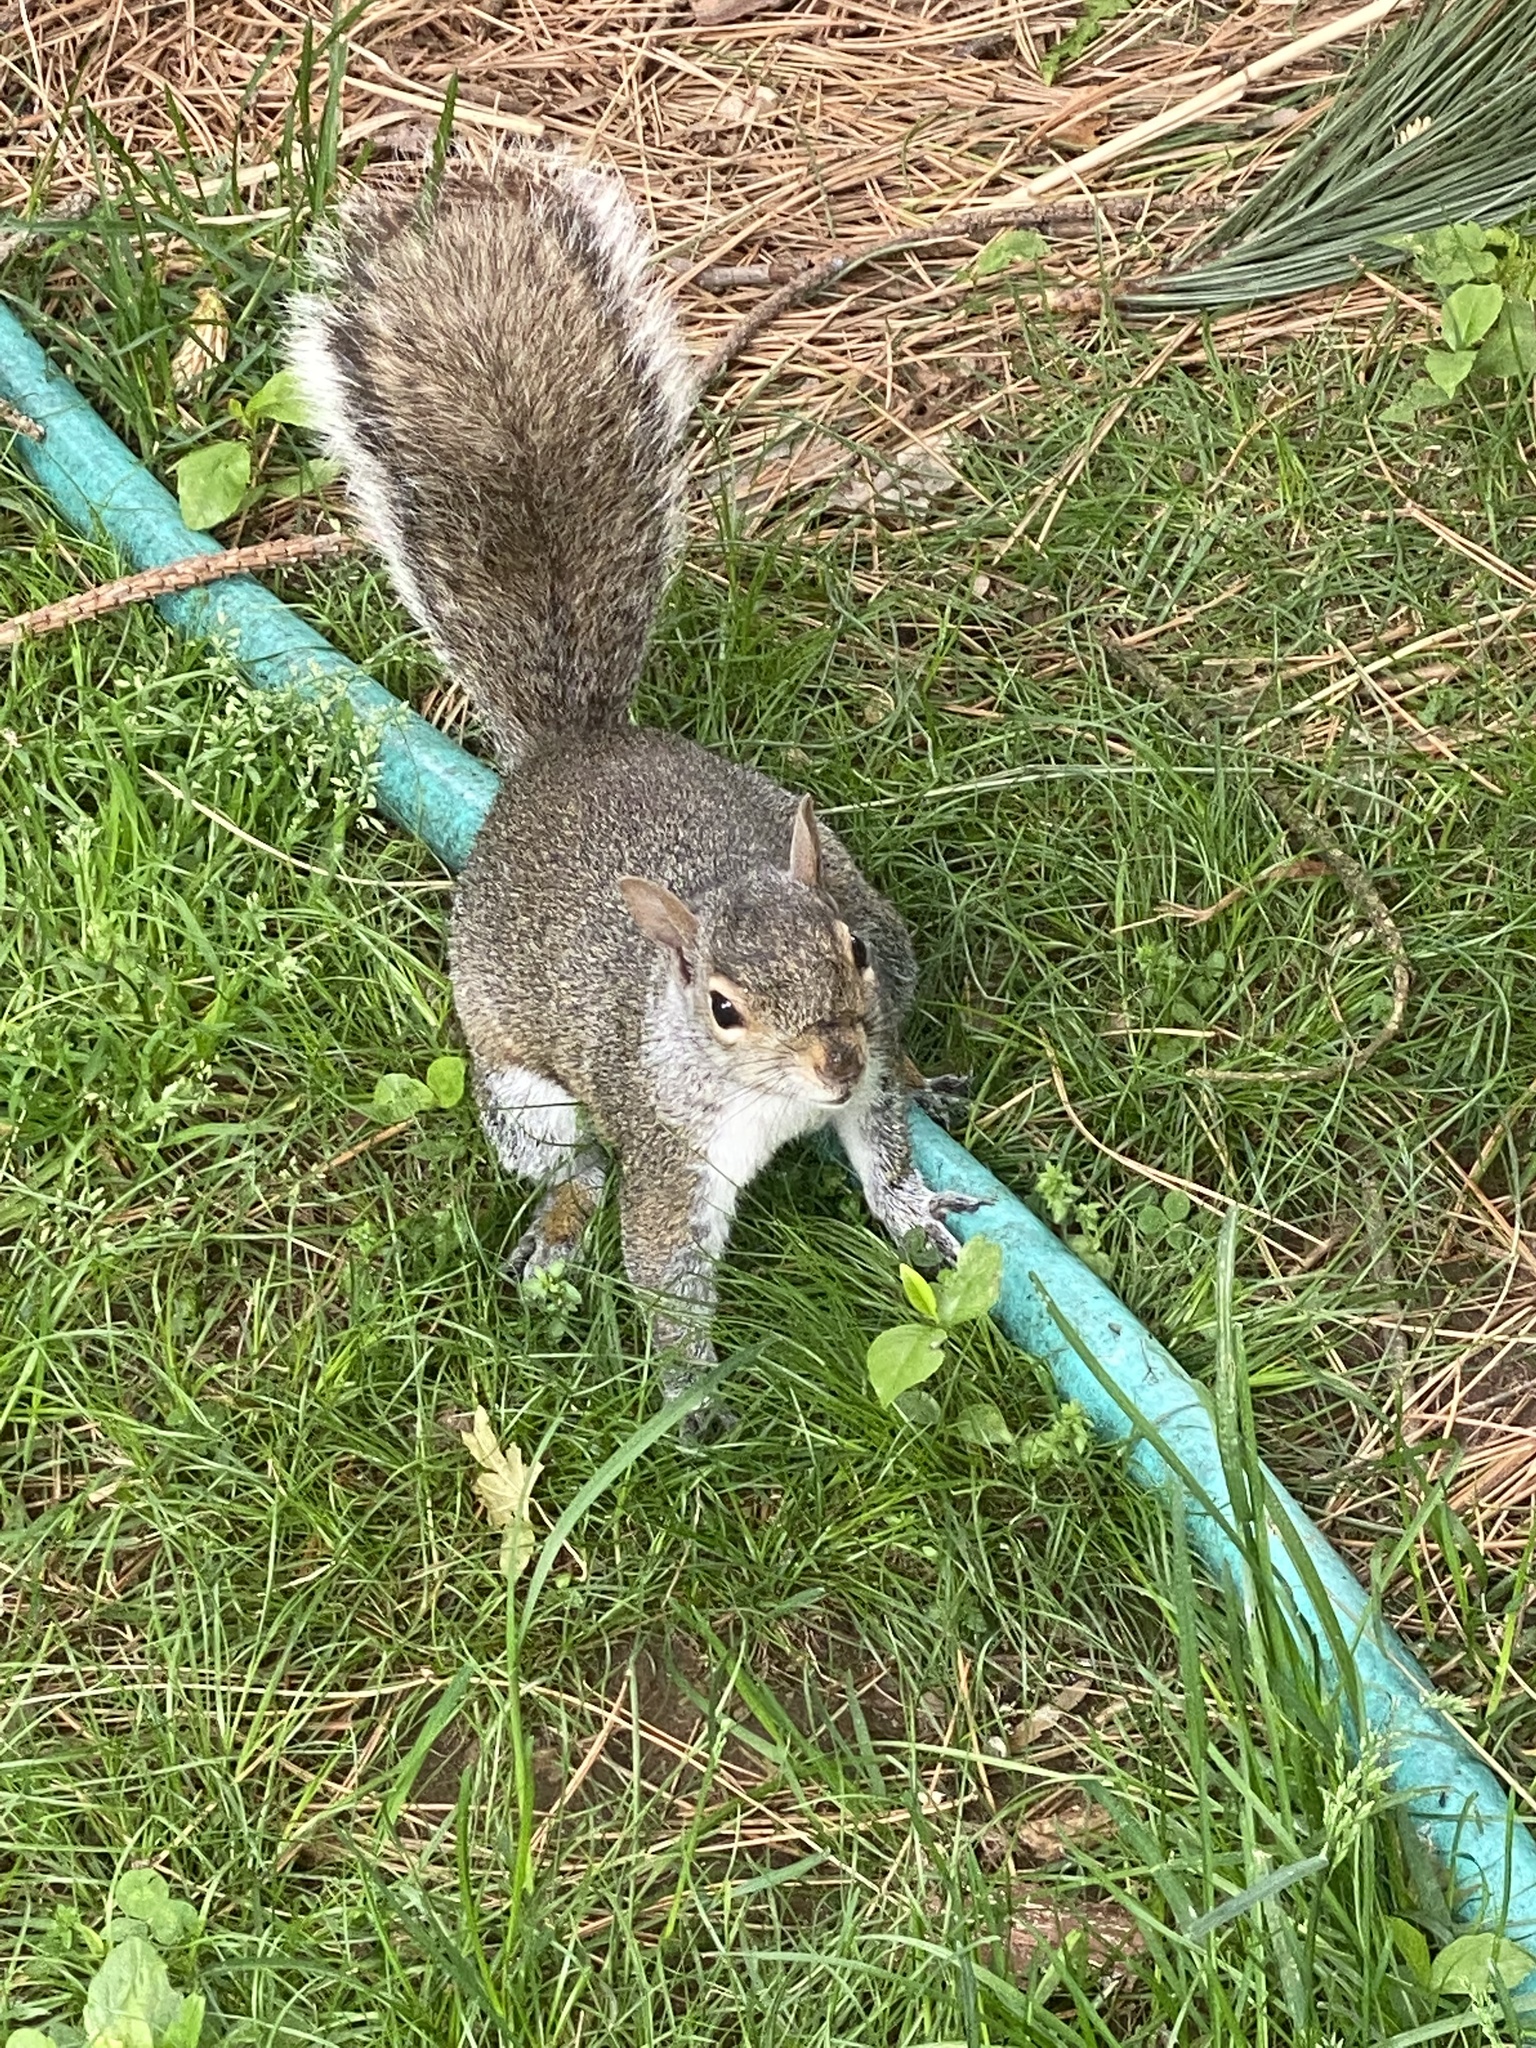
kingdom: Animalia
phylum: Chordata
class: Mammalia
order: Rodentia
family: Sciuridae
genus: Sciurus
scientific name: Sciurus carolinensis
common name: Eastern gray squirrel
